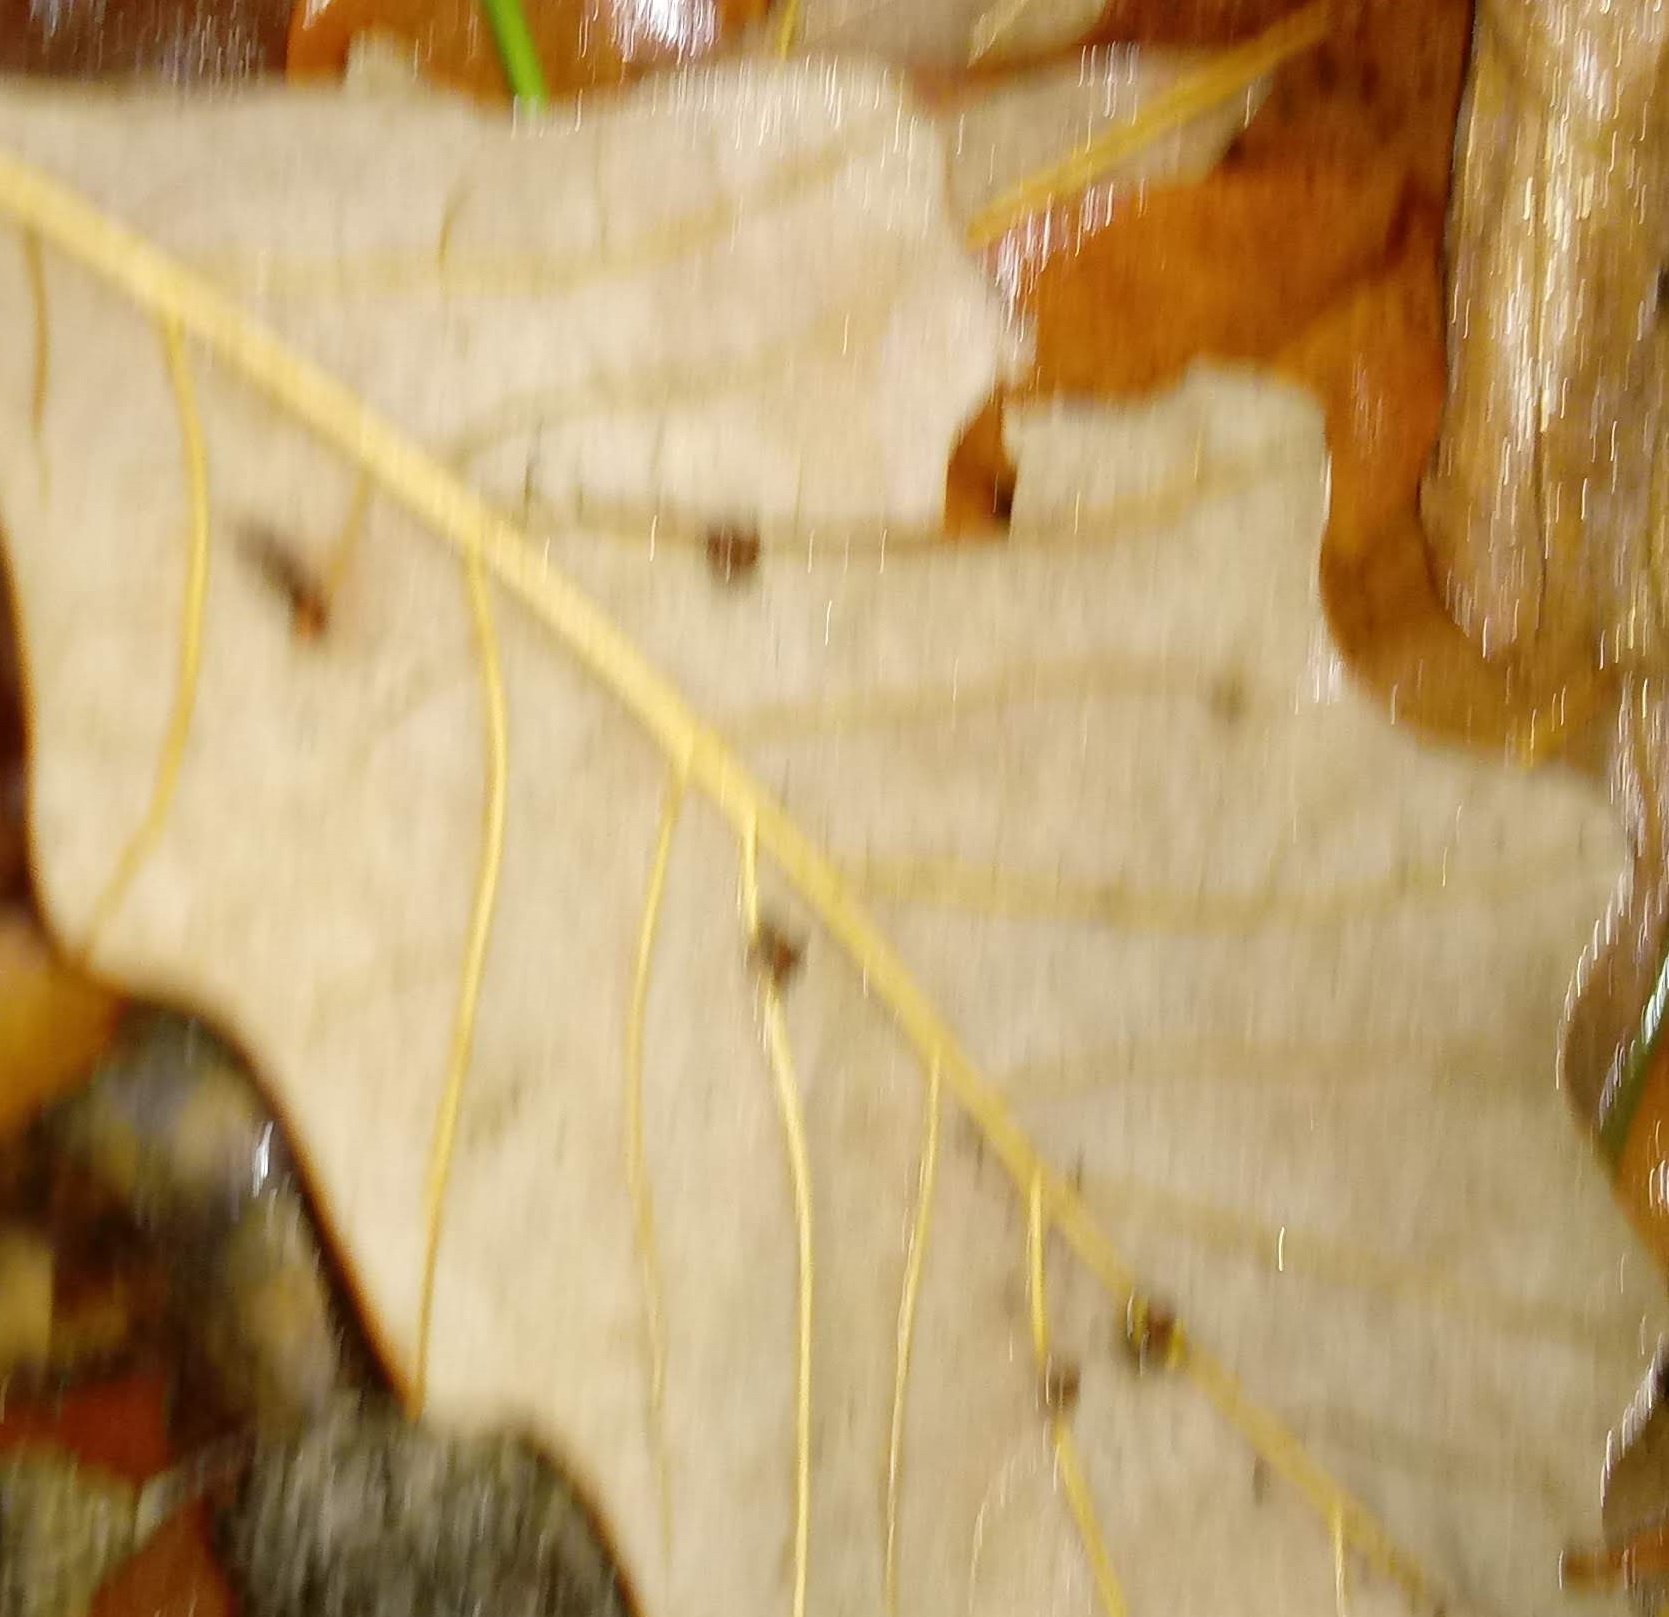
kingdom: Animalia
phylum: Arthropoda
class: Insecta
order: Hymenoptera
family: Cynipidae
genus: Andricus
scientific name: Andricus Druon ignotum
